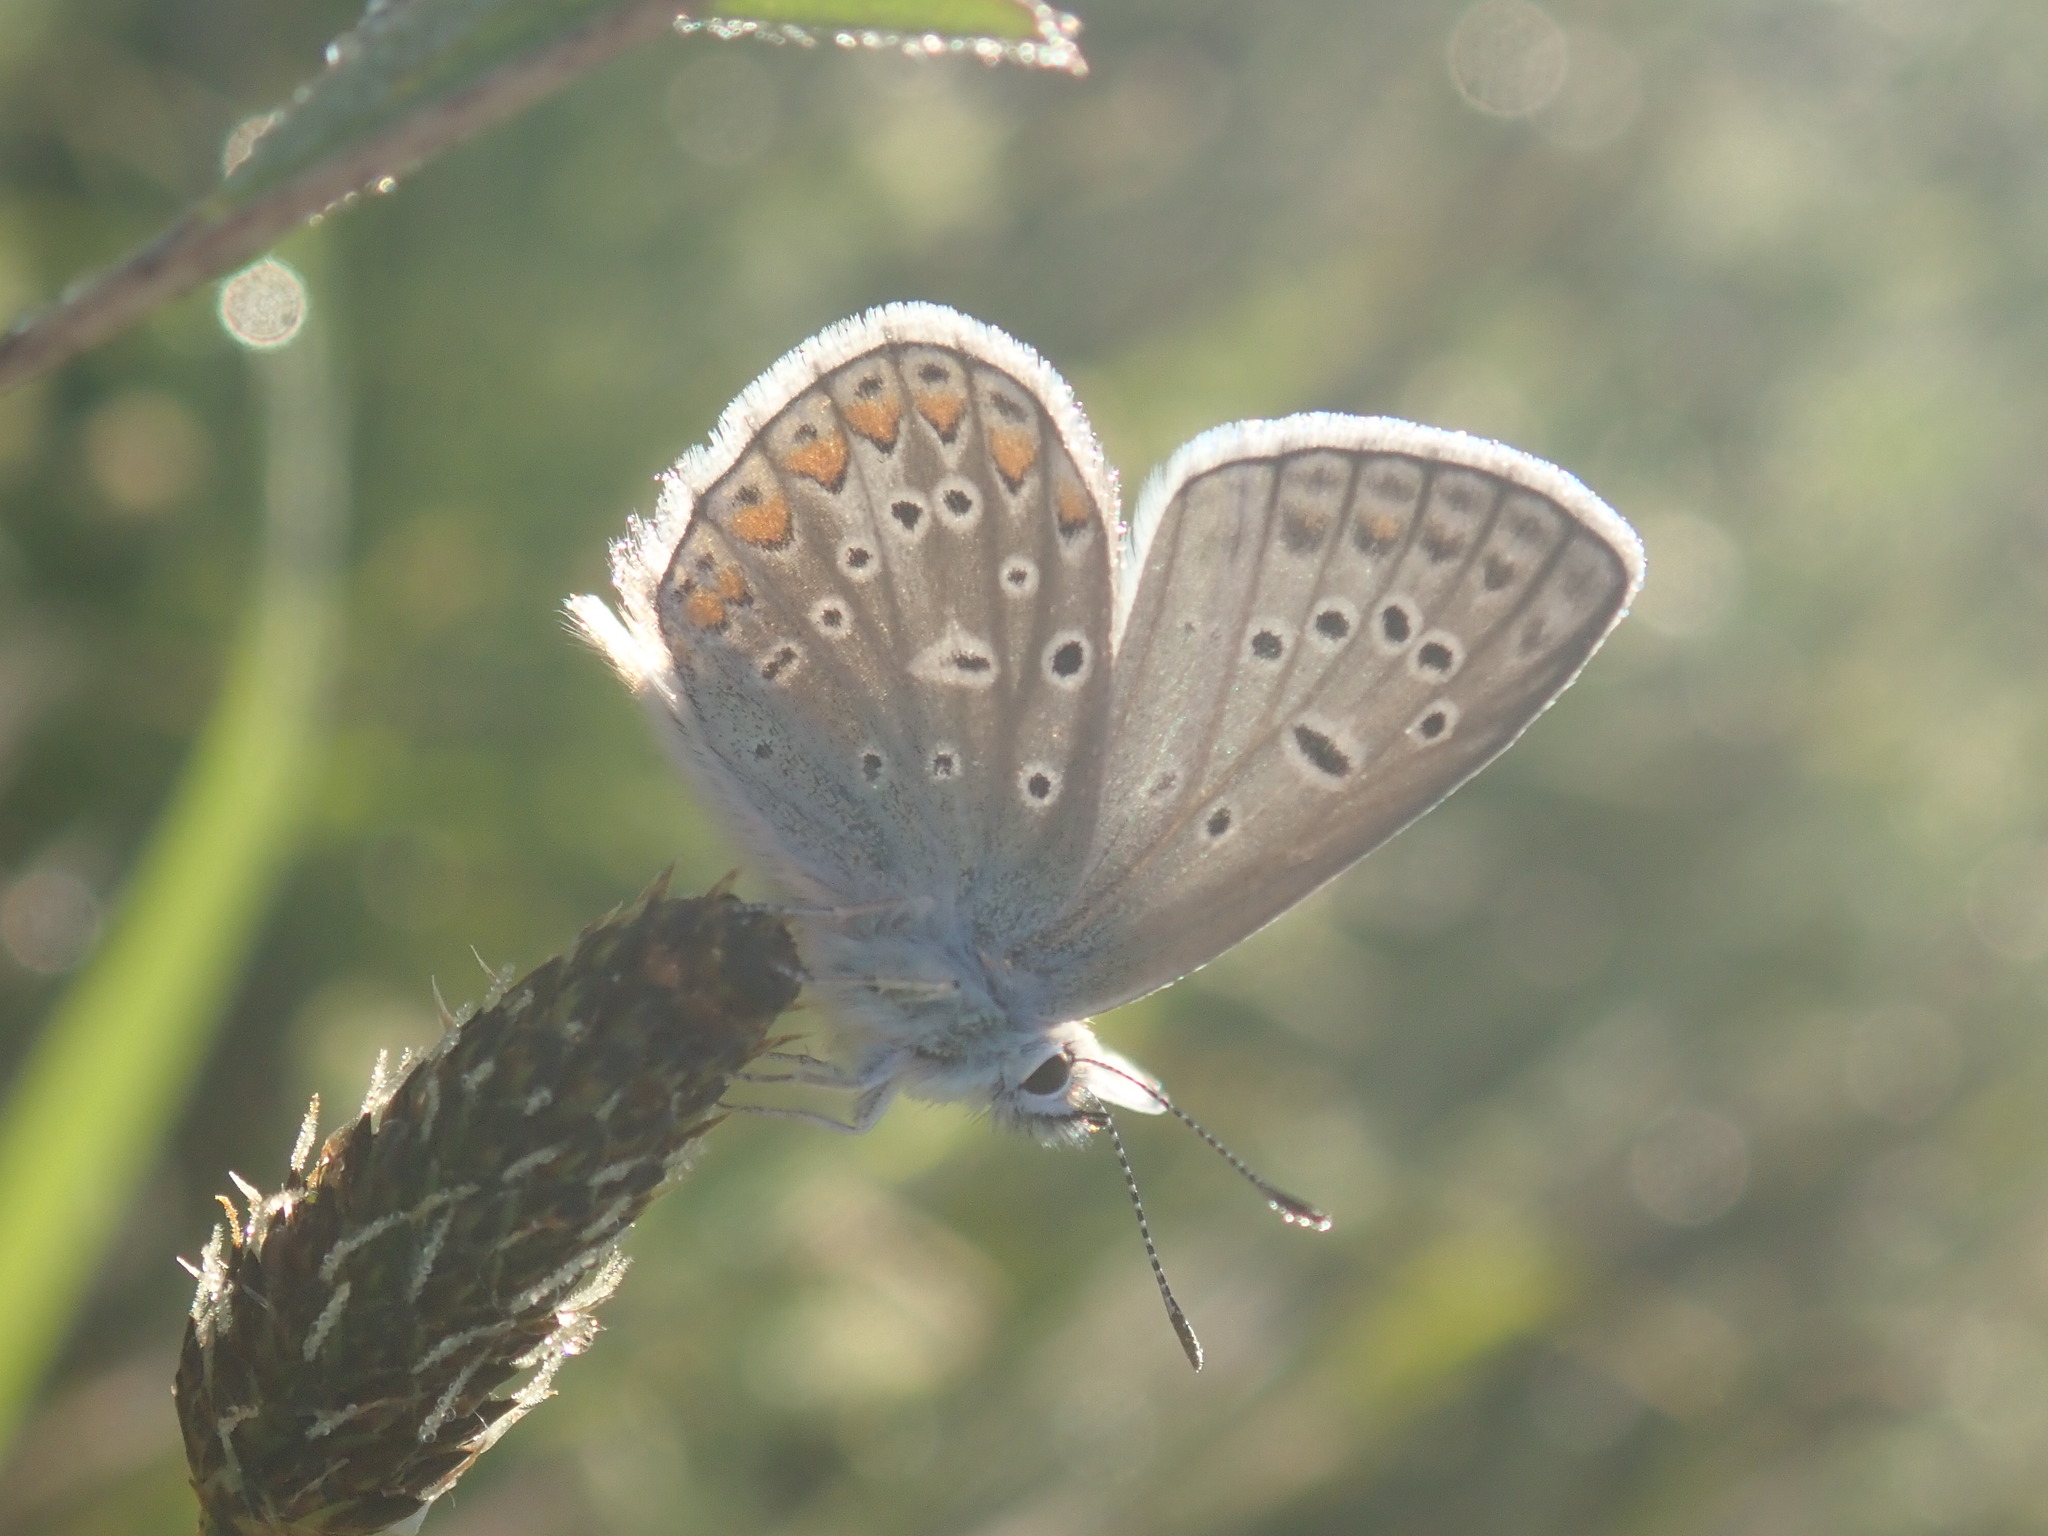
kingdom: Animalia
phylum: Arthropoda
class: Insecta
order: Lepidoptera
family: Lycaenidae
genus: Polyommatus
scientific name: Polyommatus icarus
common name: Common blue
